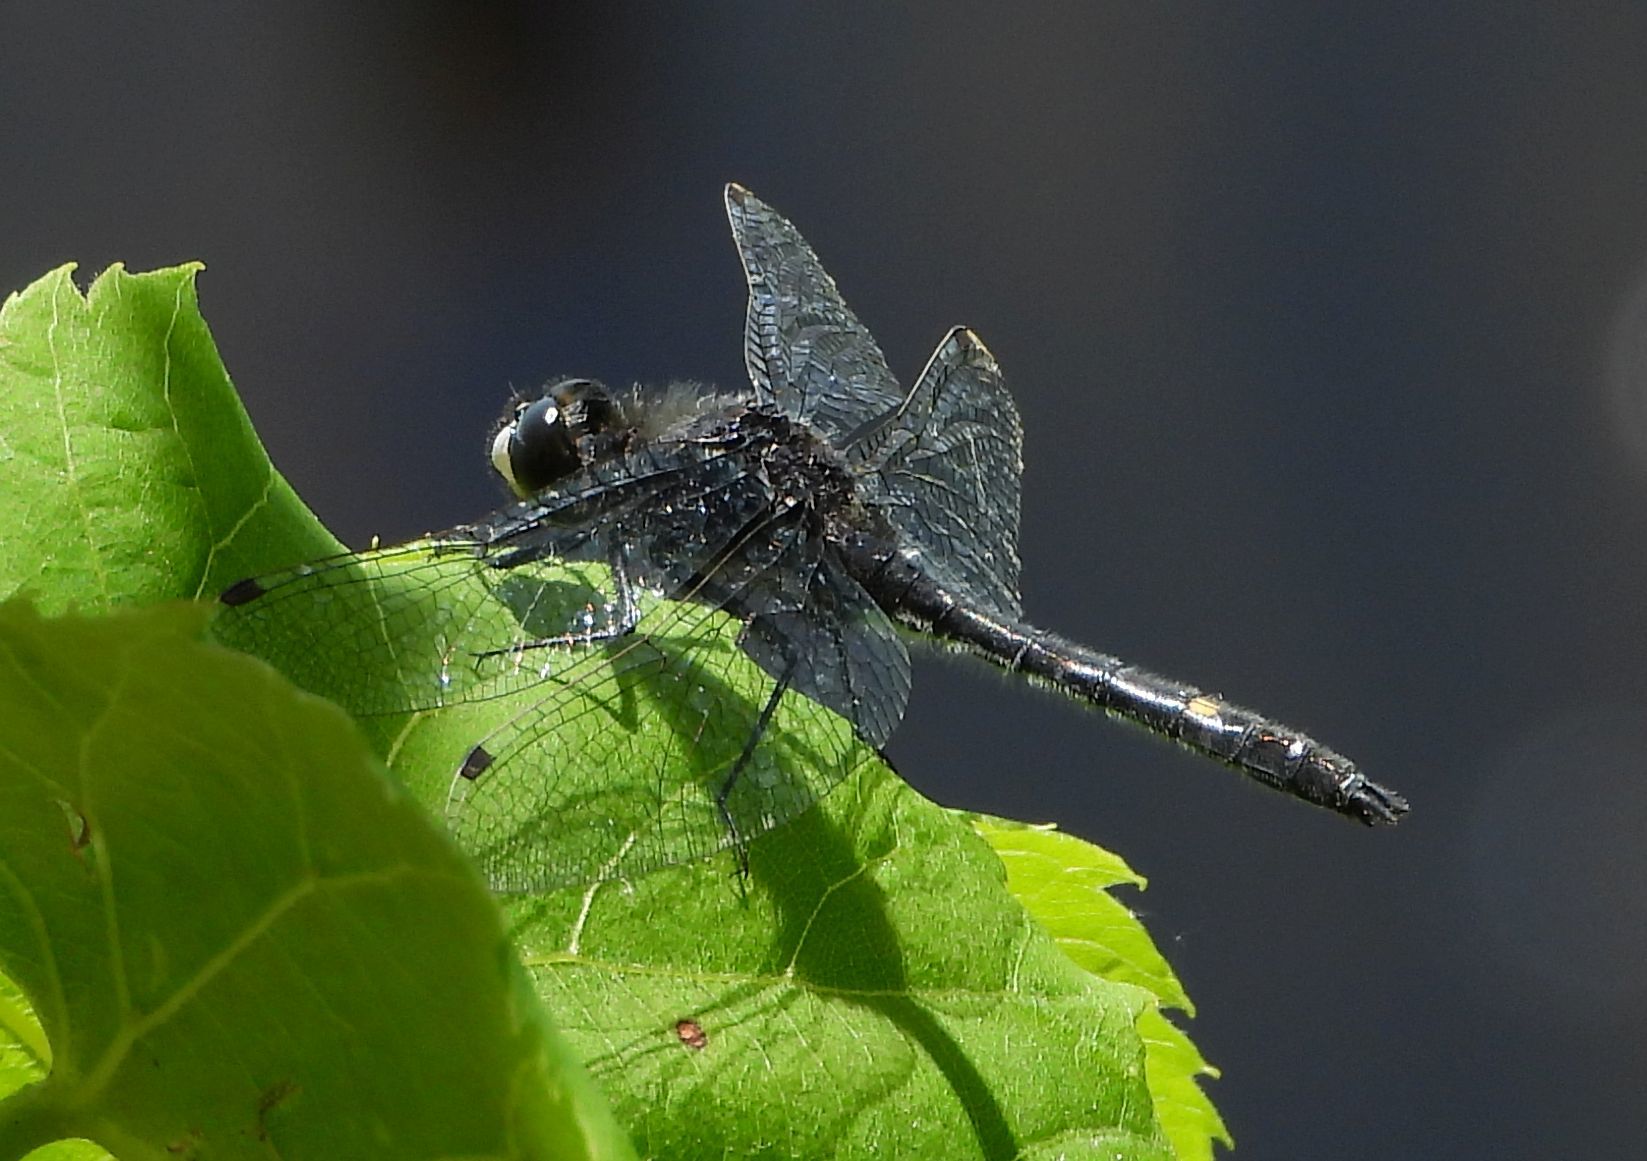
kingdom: Animalia
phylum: Arthropoda
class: Insecta
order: Odonata
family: Libellulidae
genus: Leucorrhinia
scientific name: Leucorrhinia intacta
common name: Dot-tailed whiteface
